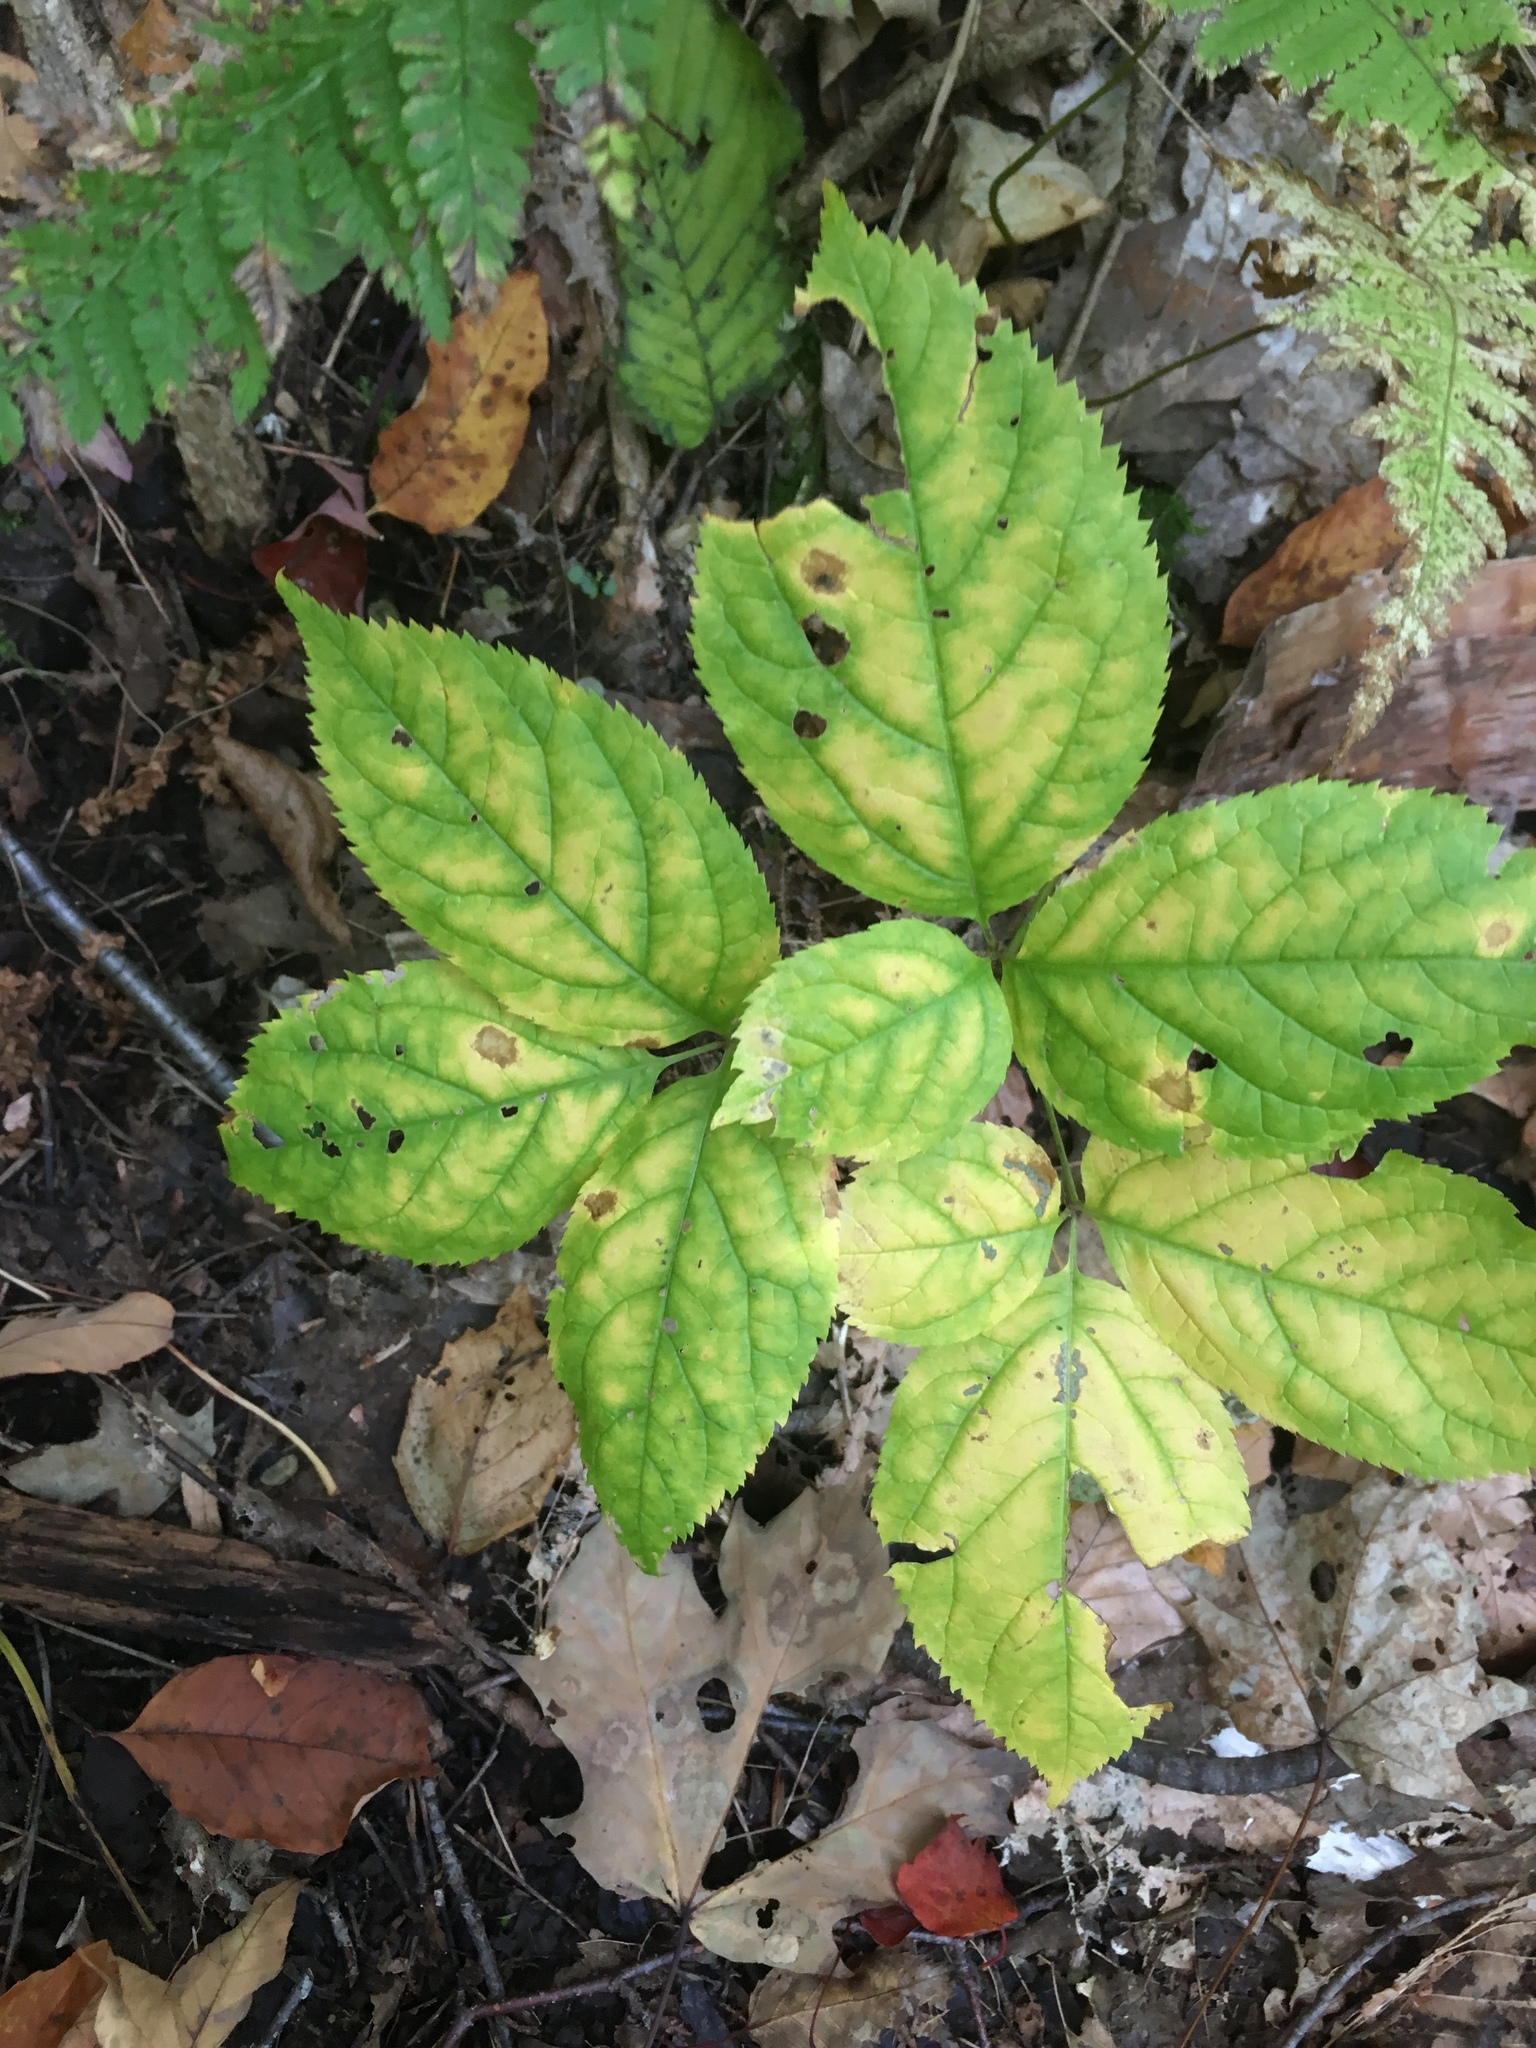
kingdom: Plantae
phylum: Tracheophyta
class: Magnoliopsida
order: Apiales
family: Araliaceae
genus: Aralia
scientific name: Aralia nudicaulis
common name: Wild sarsaparilla
